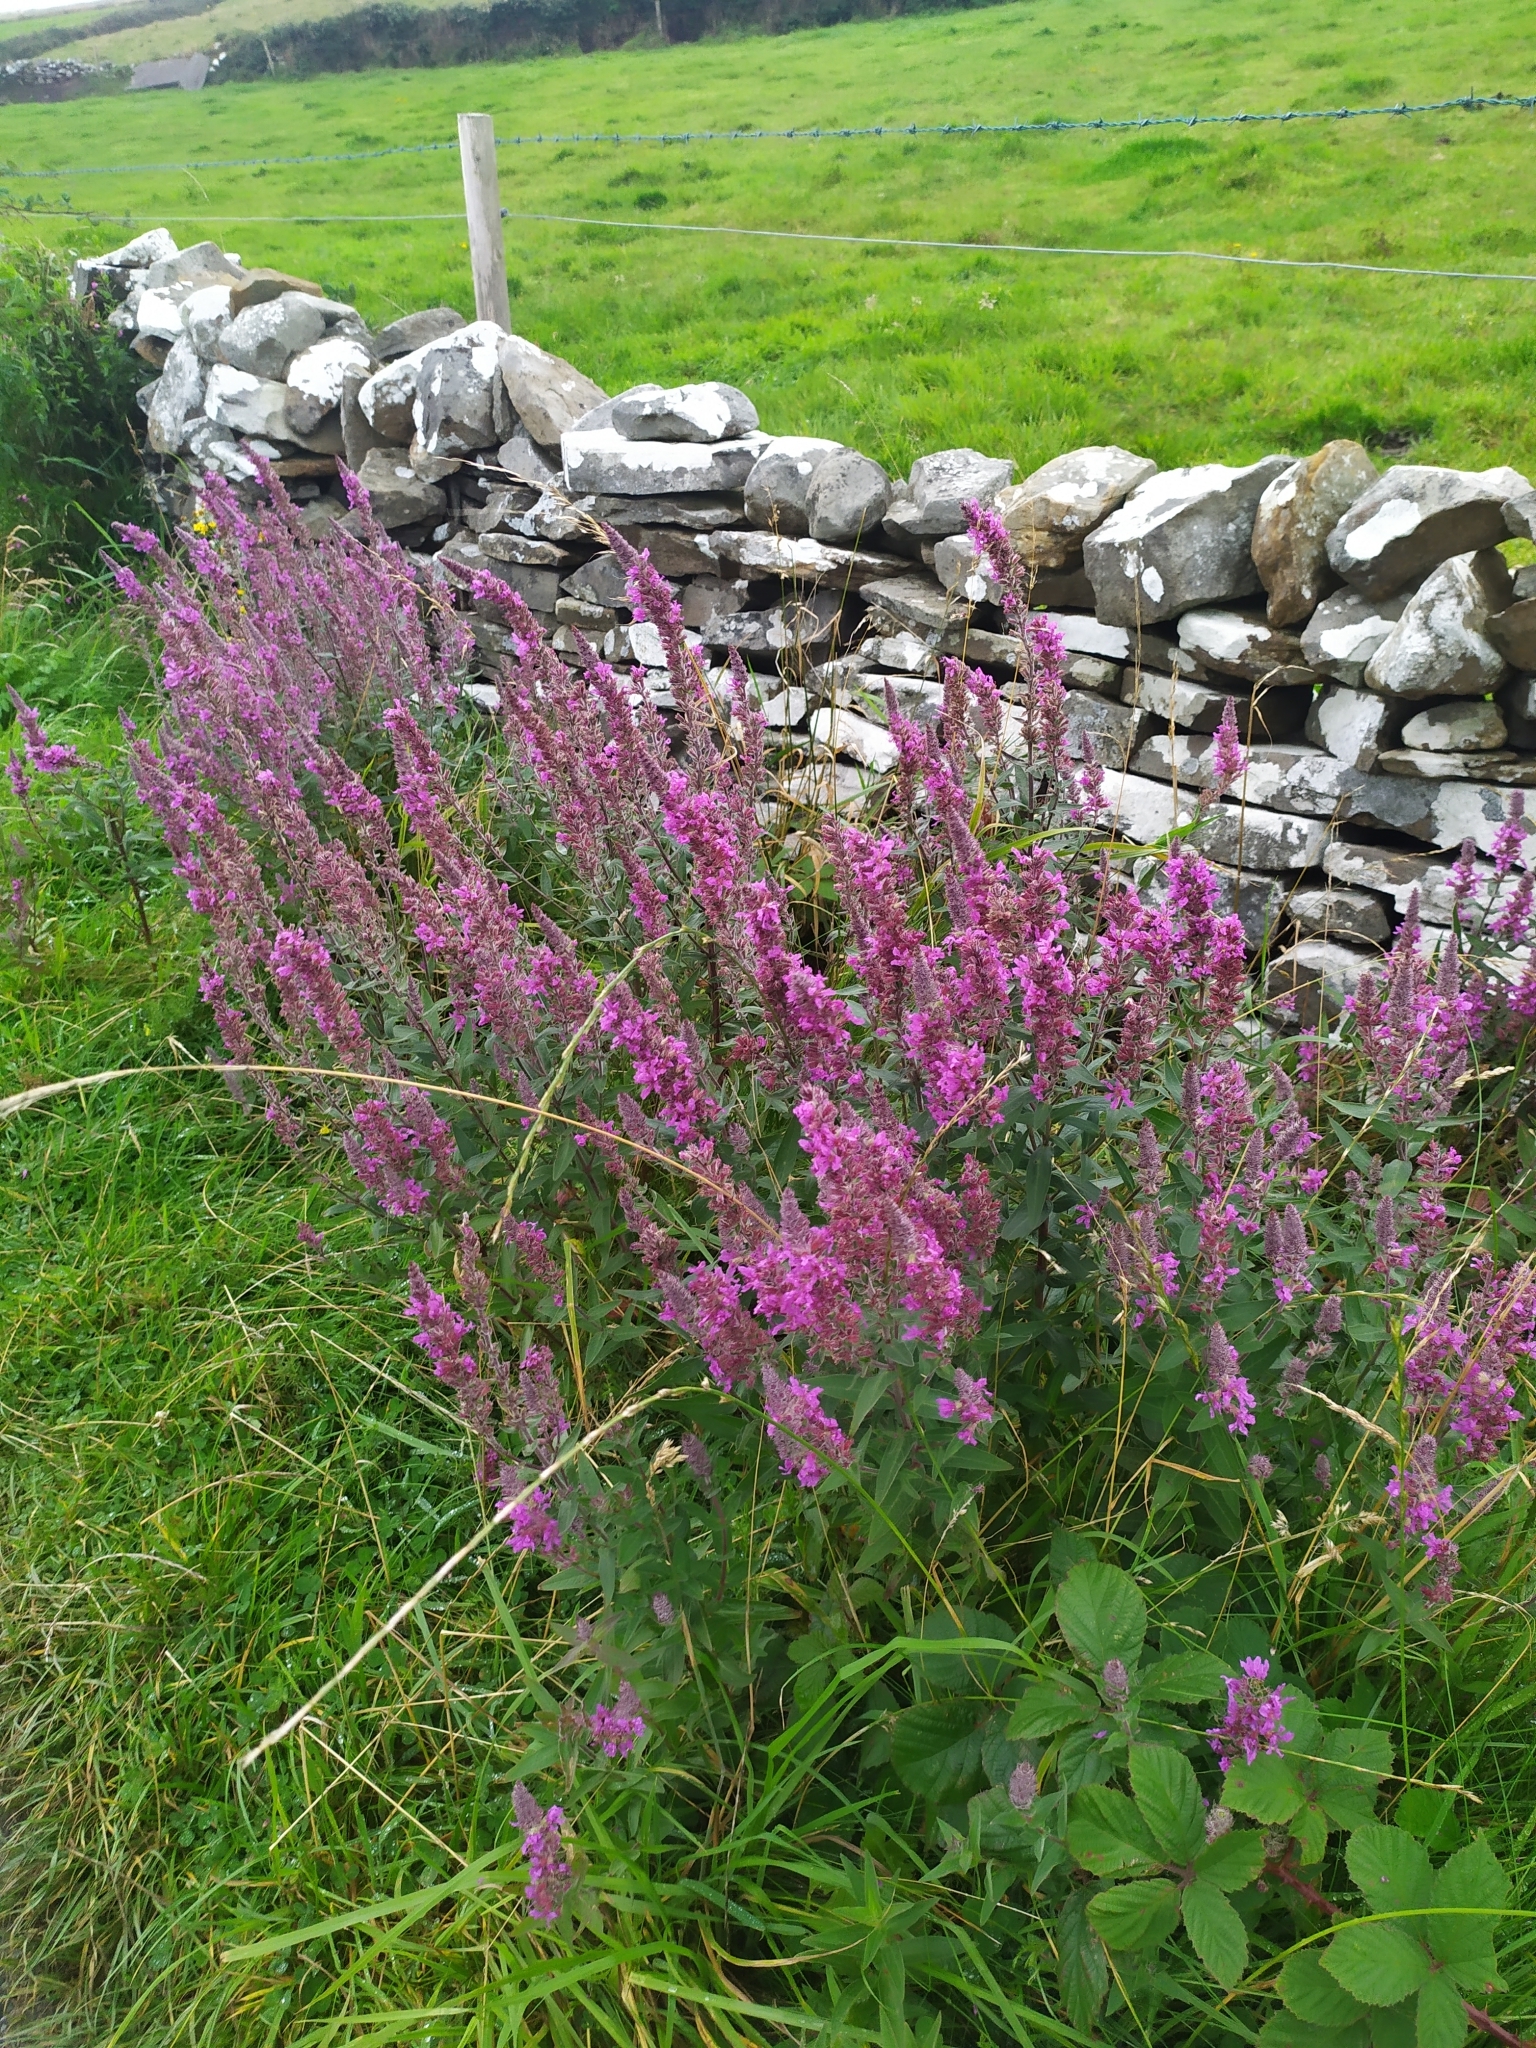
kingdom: Plantae
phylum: Tracheophyta
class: Magnoliopsida
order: Myrtales
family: Lythraceae
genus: Lythrum
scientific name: Lythrum salicaria
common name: Purple loosestrife
